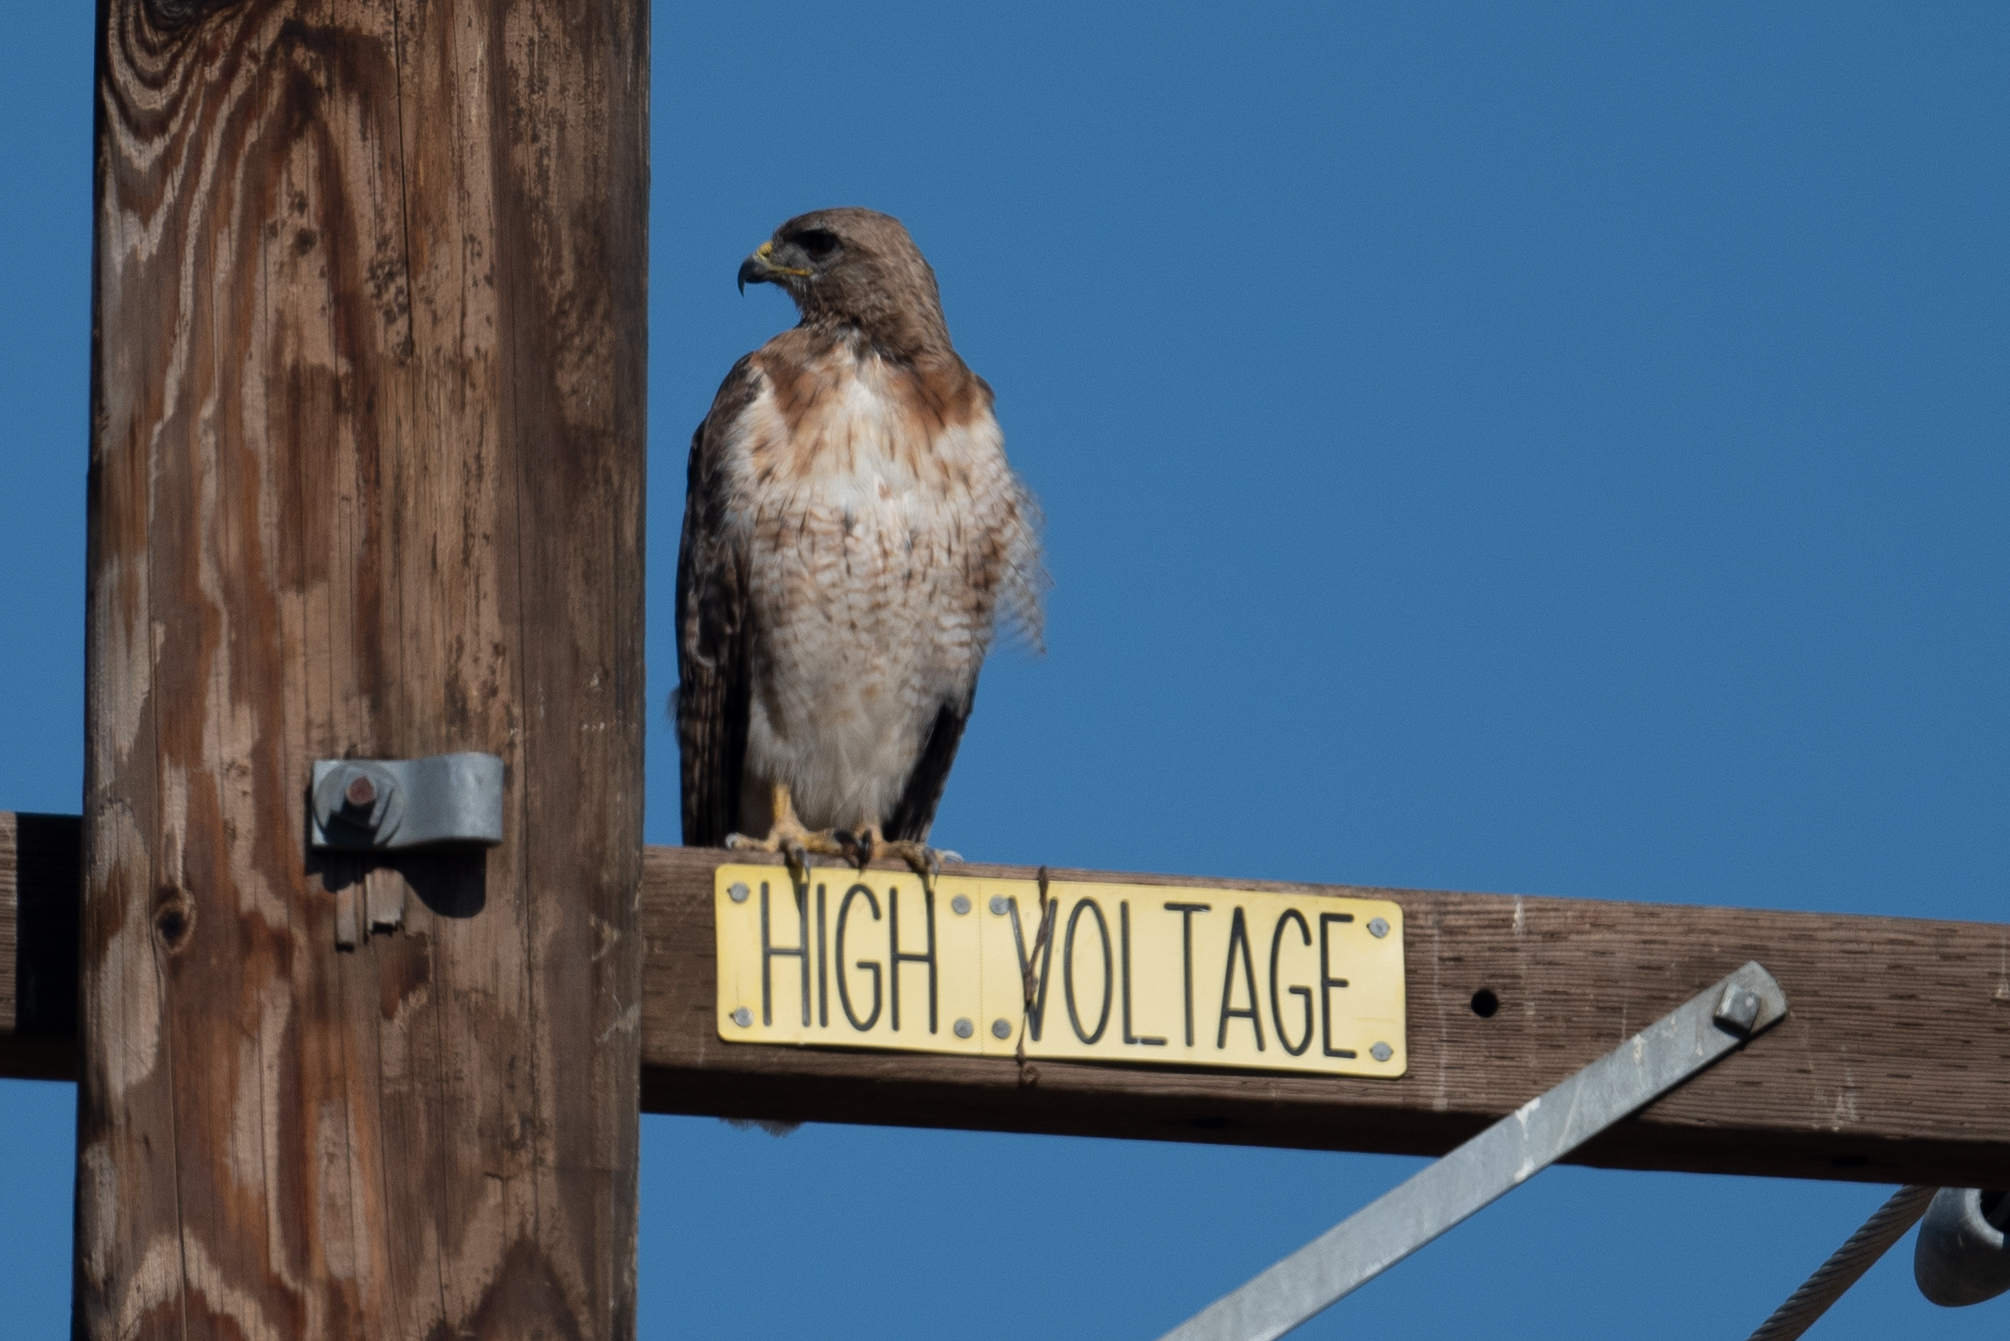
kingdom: Animalia
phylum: Chordata
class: Aves
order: Accipitriformes
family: Accipitridae
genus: Buteo
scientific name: Buteo jamaicensis
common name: Red-tailed hawk
